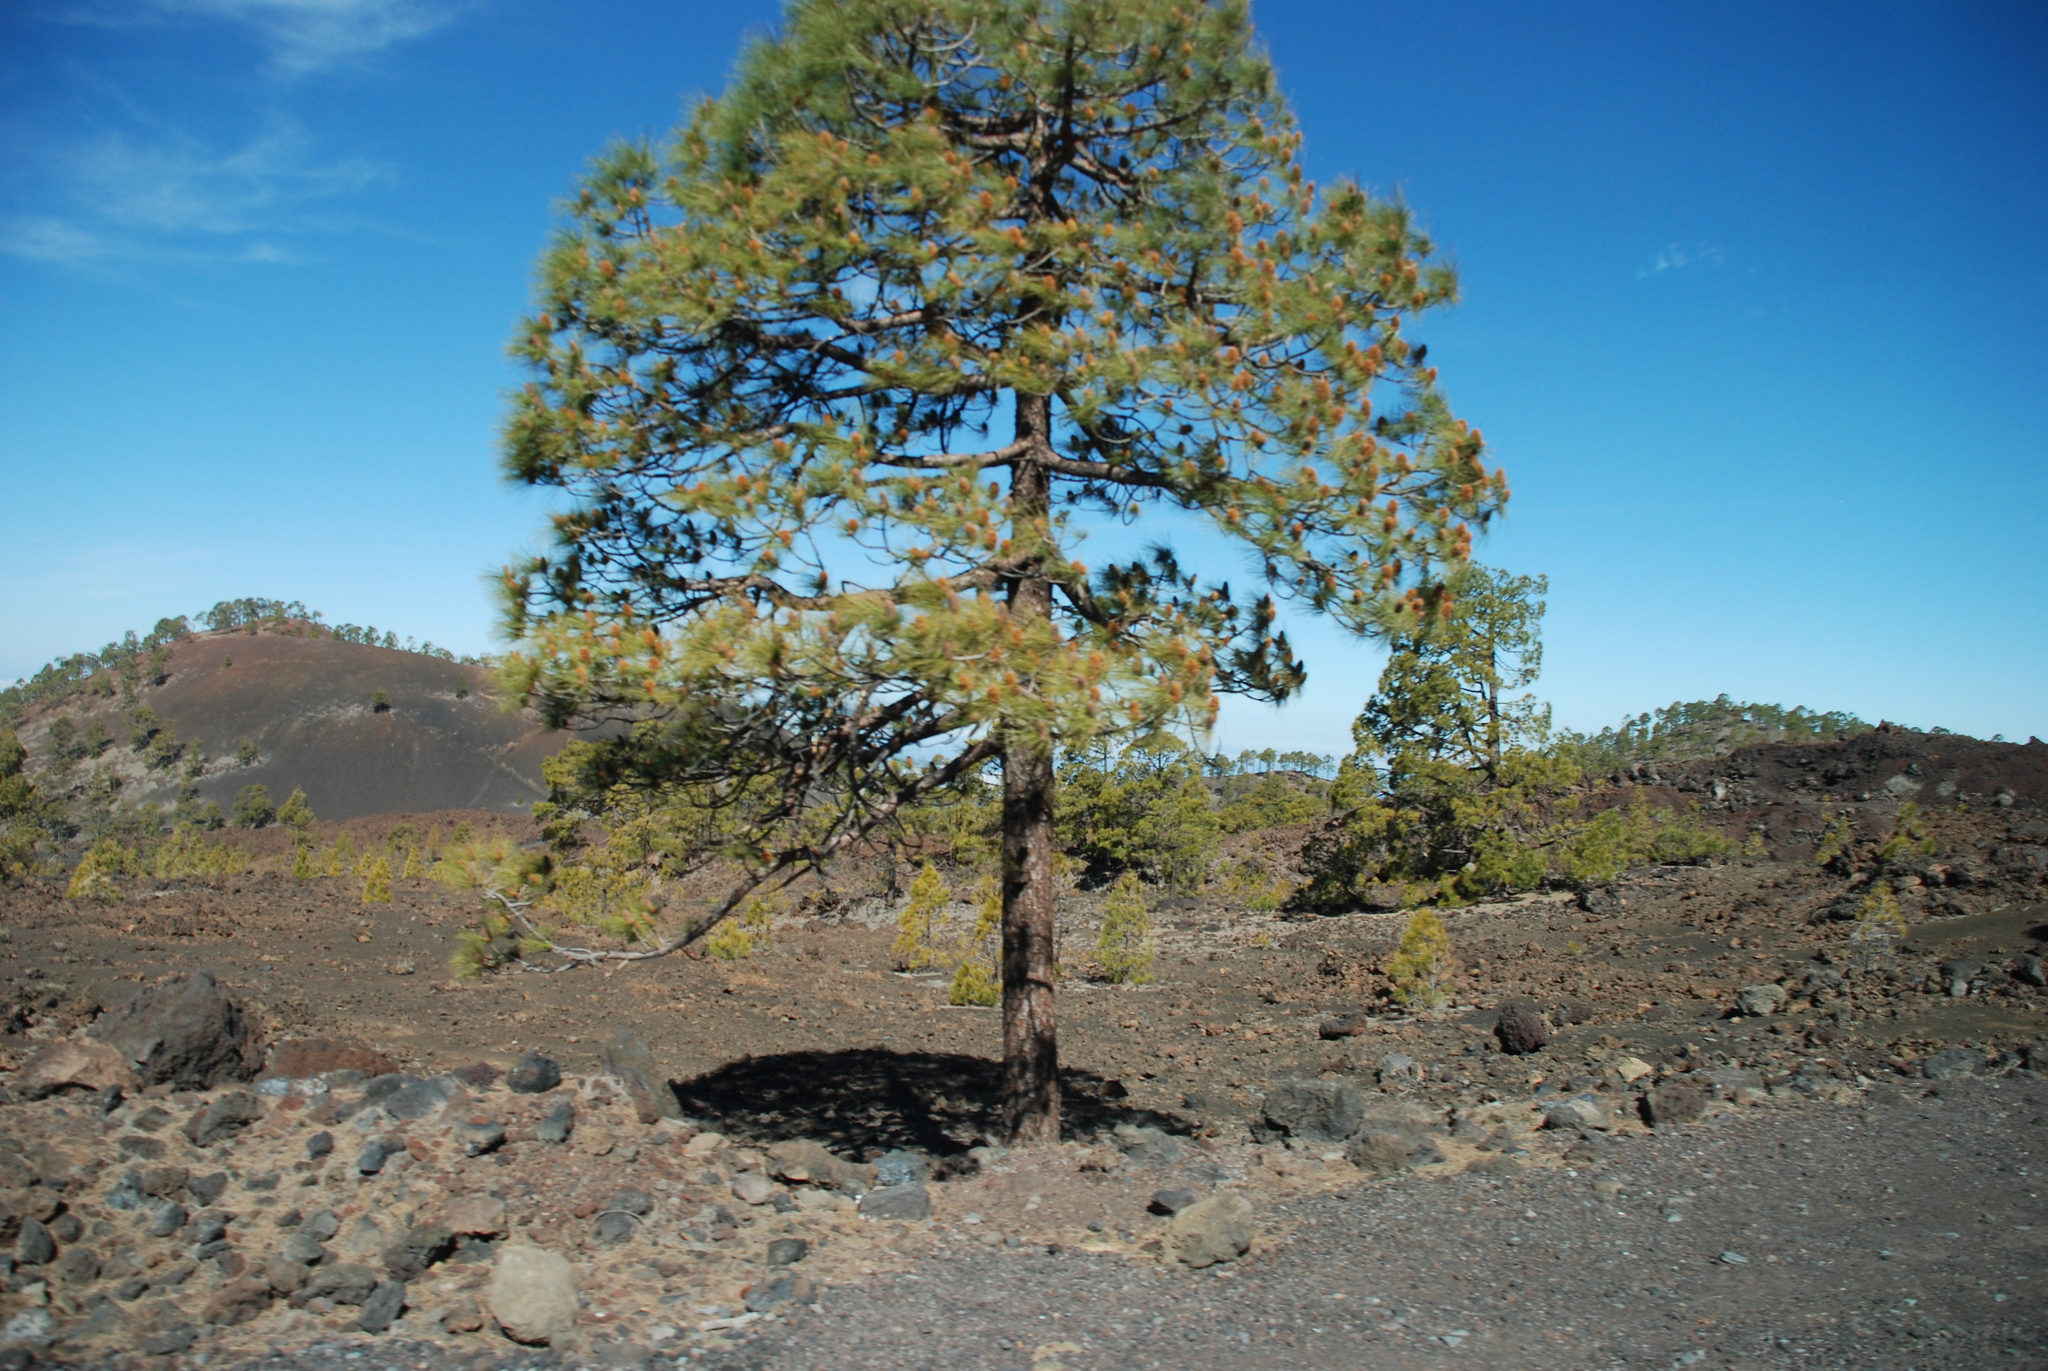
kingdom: Plantae
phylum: Tracheophyta
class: Pinopsida
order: Pinales
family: Pinaceae
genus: Pinus
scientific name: Pinus canariensis
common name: Canary islands pine
